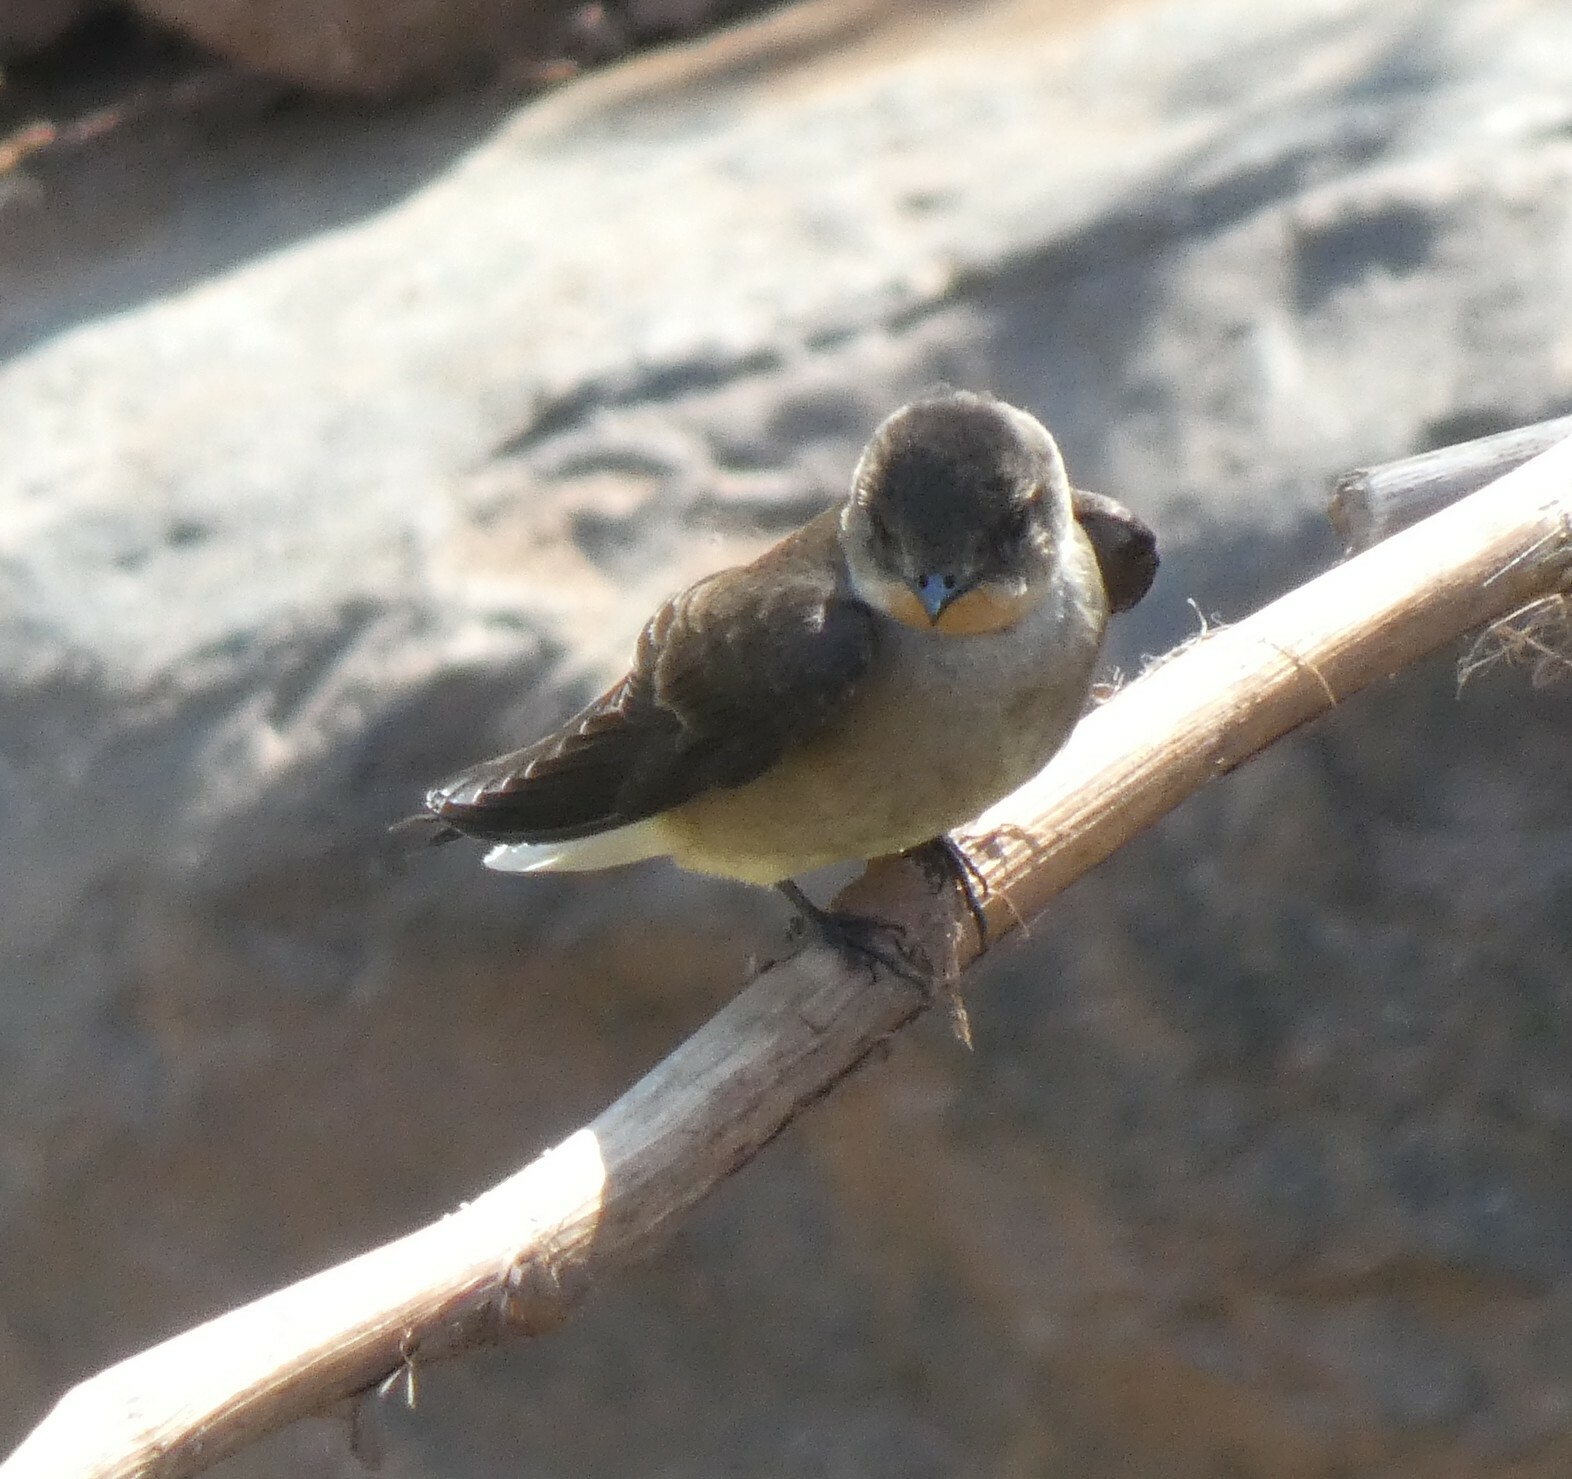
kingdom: Animalia
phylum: Chordata
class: Aves
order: Passeriformes
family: Hirundinidae
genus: Stelgidopteryx
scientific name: Stelgidopteryx ruficollis
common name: Southern rough-winged swallow
